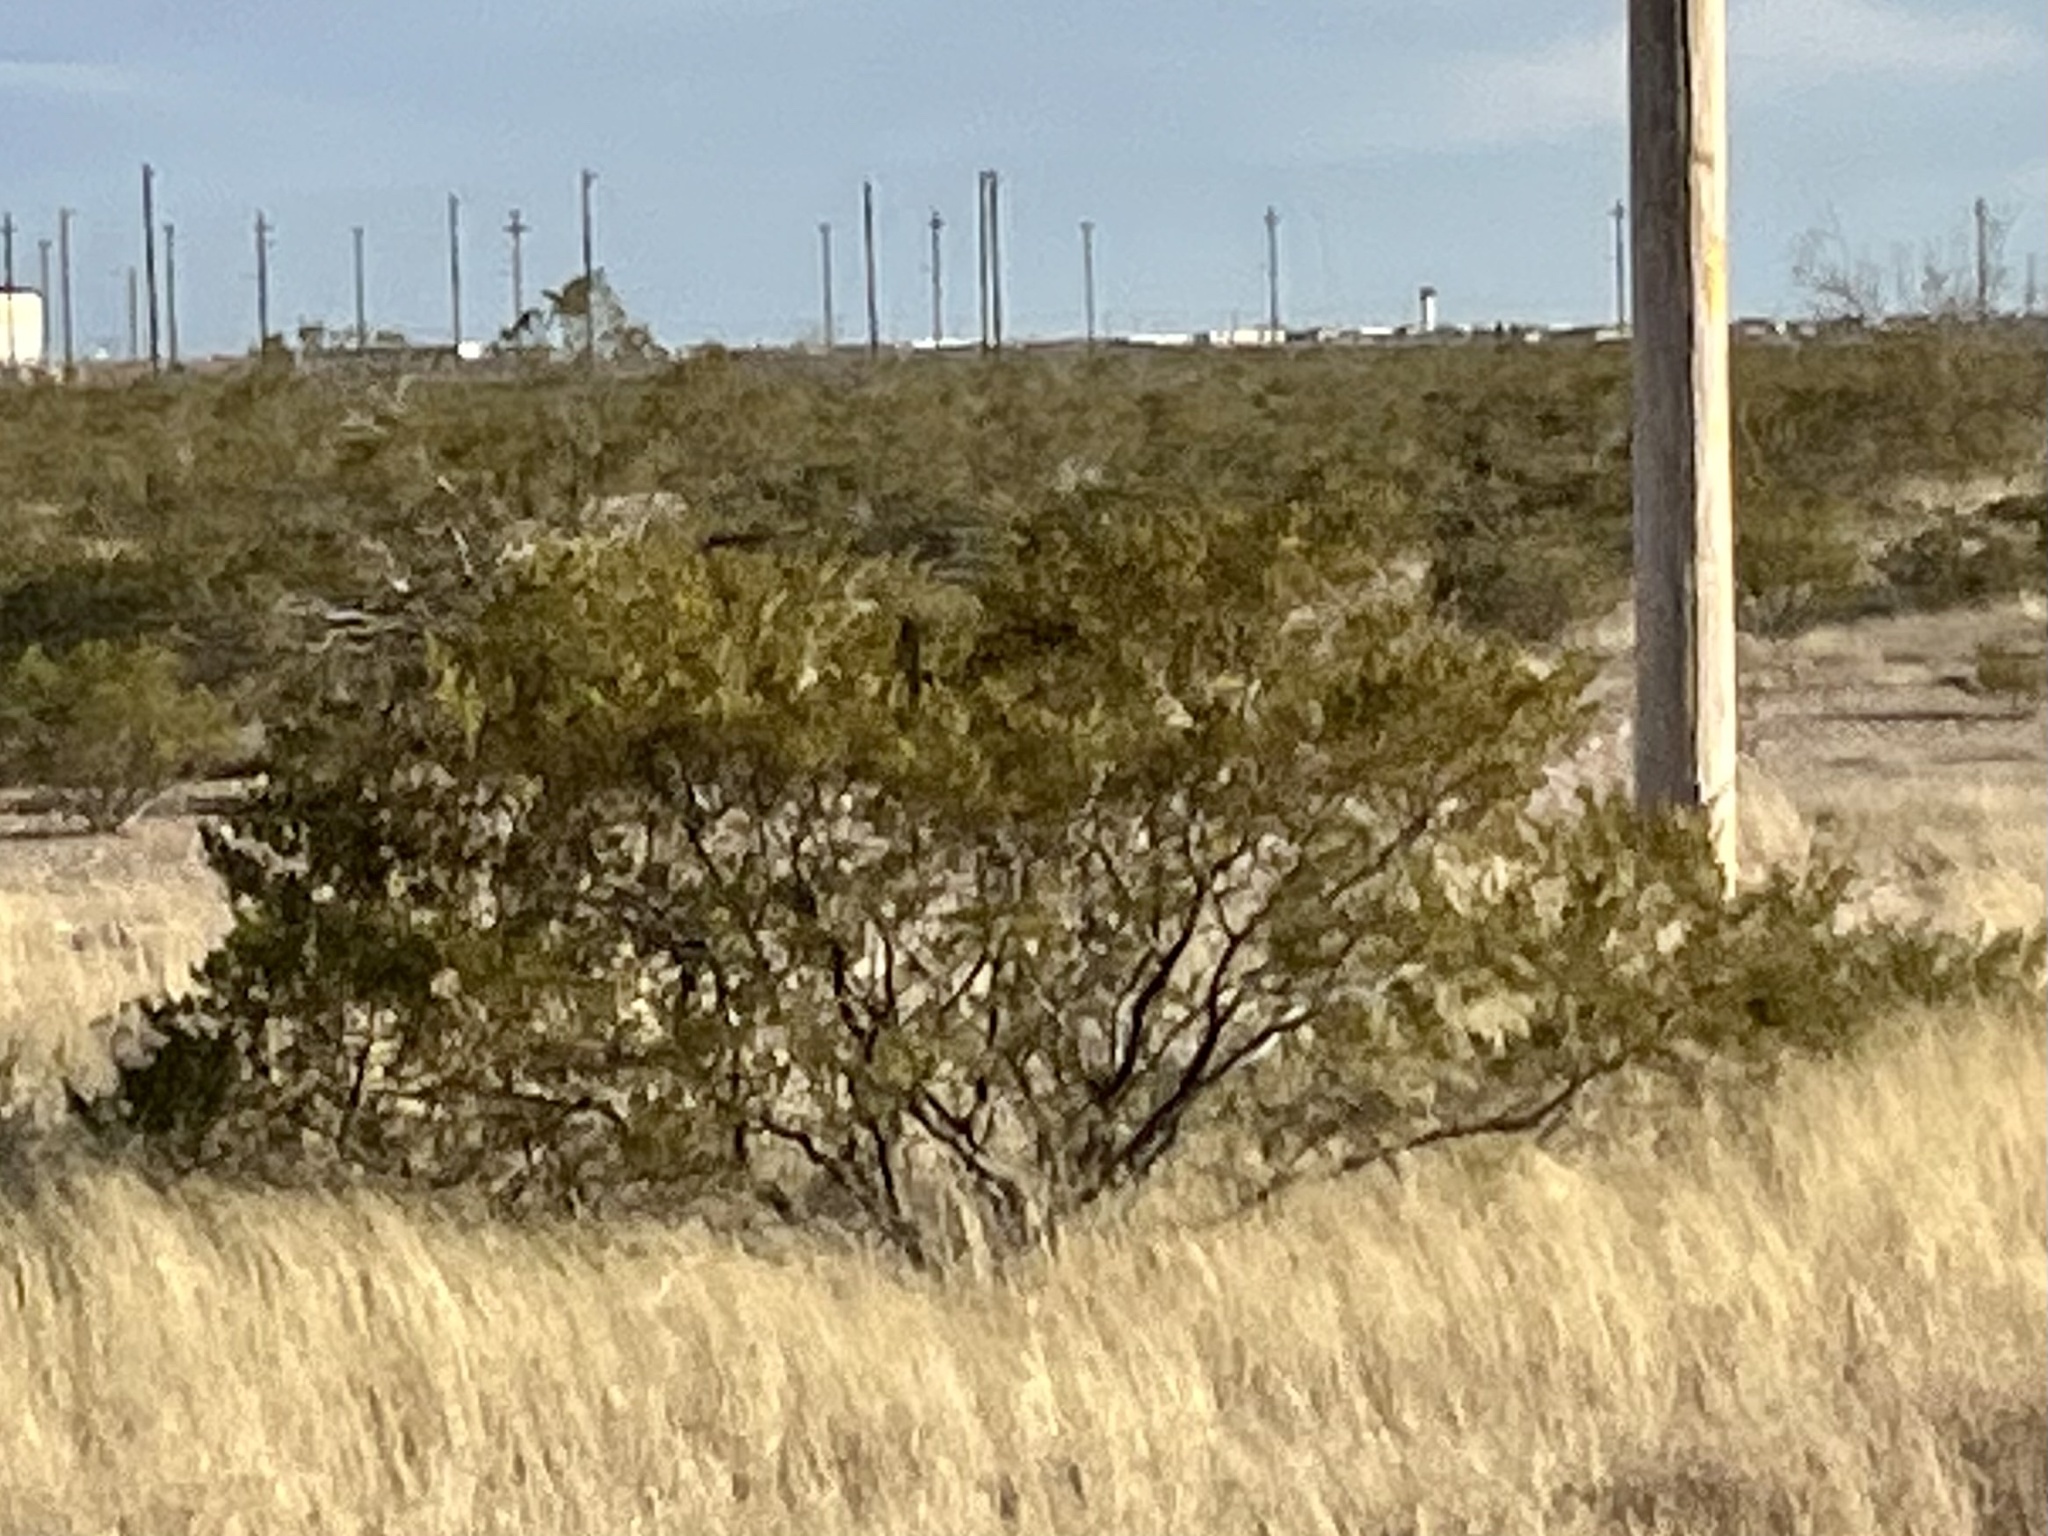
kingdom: Plantae
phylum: Tracheophyta
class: Magnoliopsida
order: Zygophyllales
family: Zygophyllaceae
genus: Larrea
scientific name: Larrea tridentata
